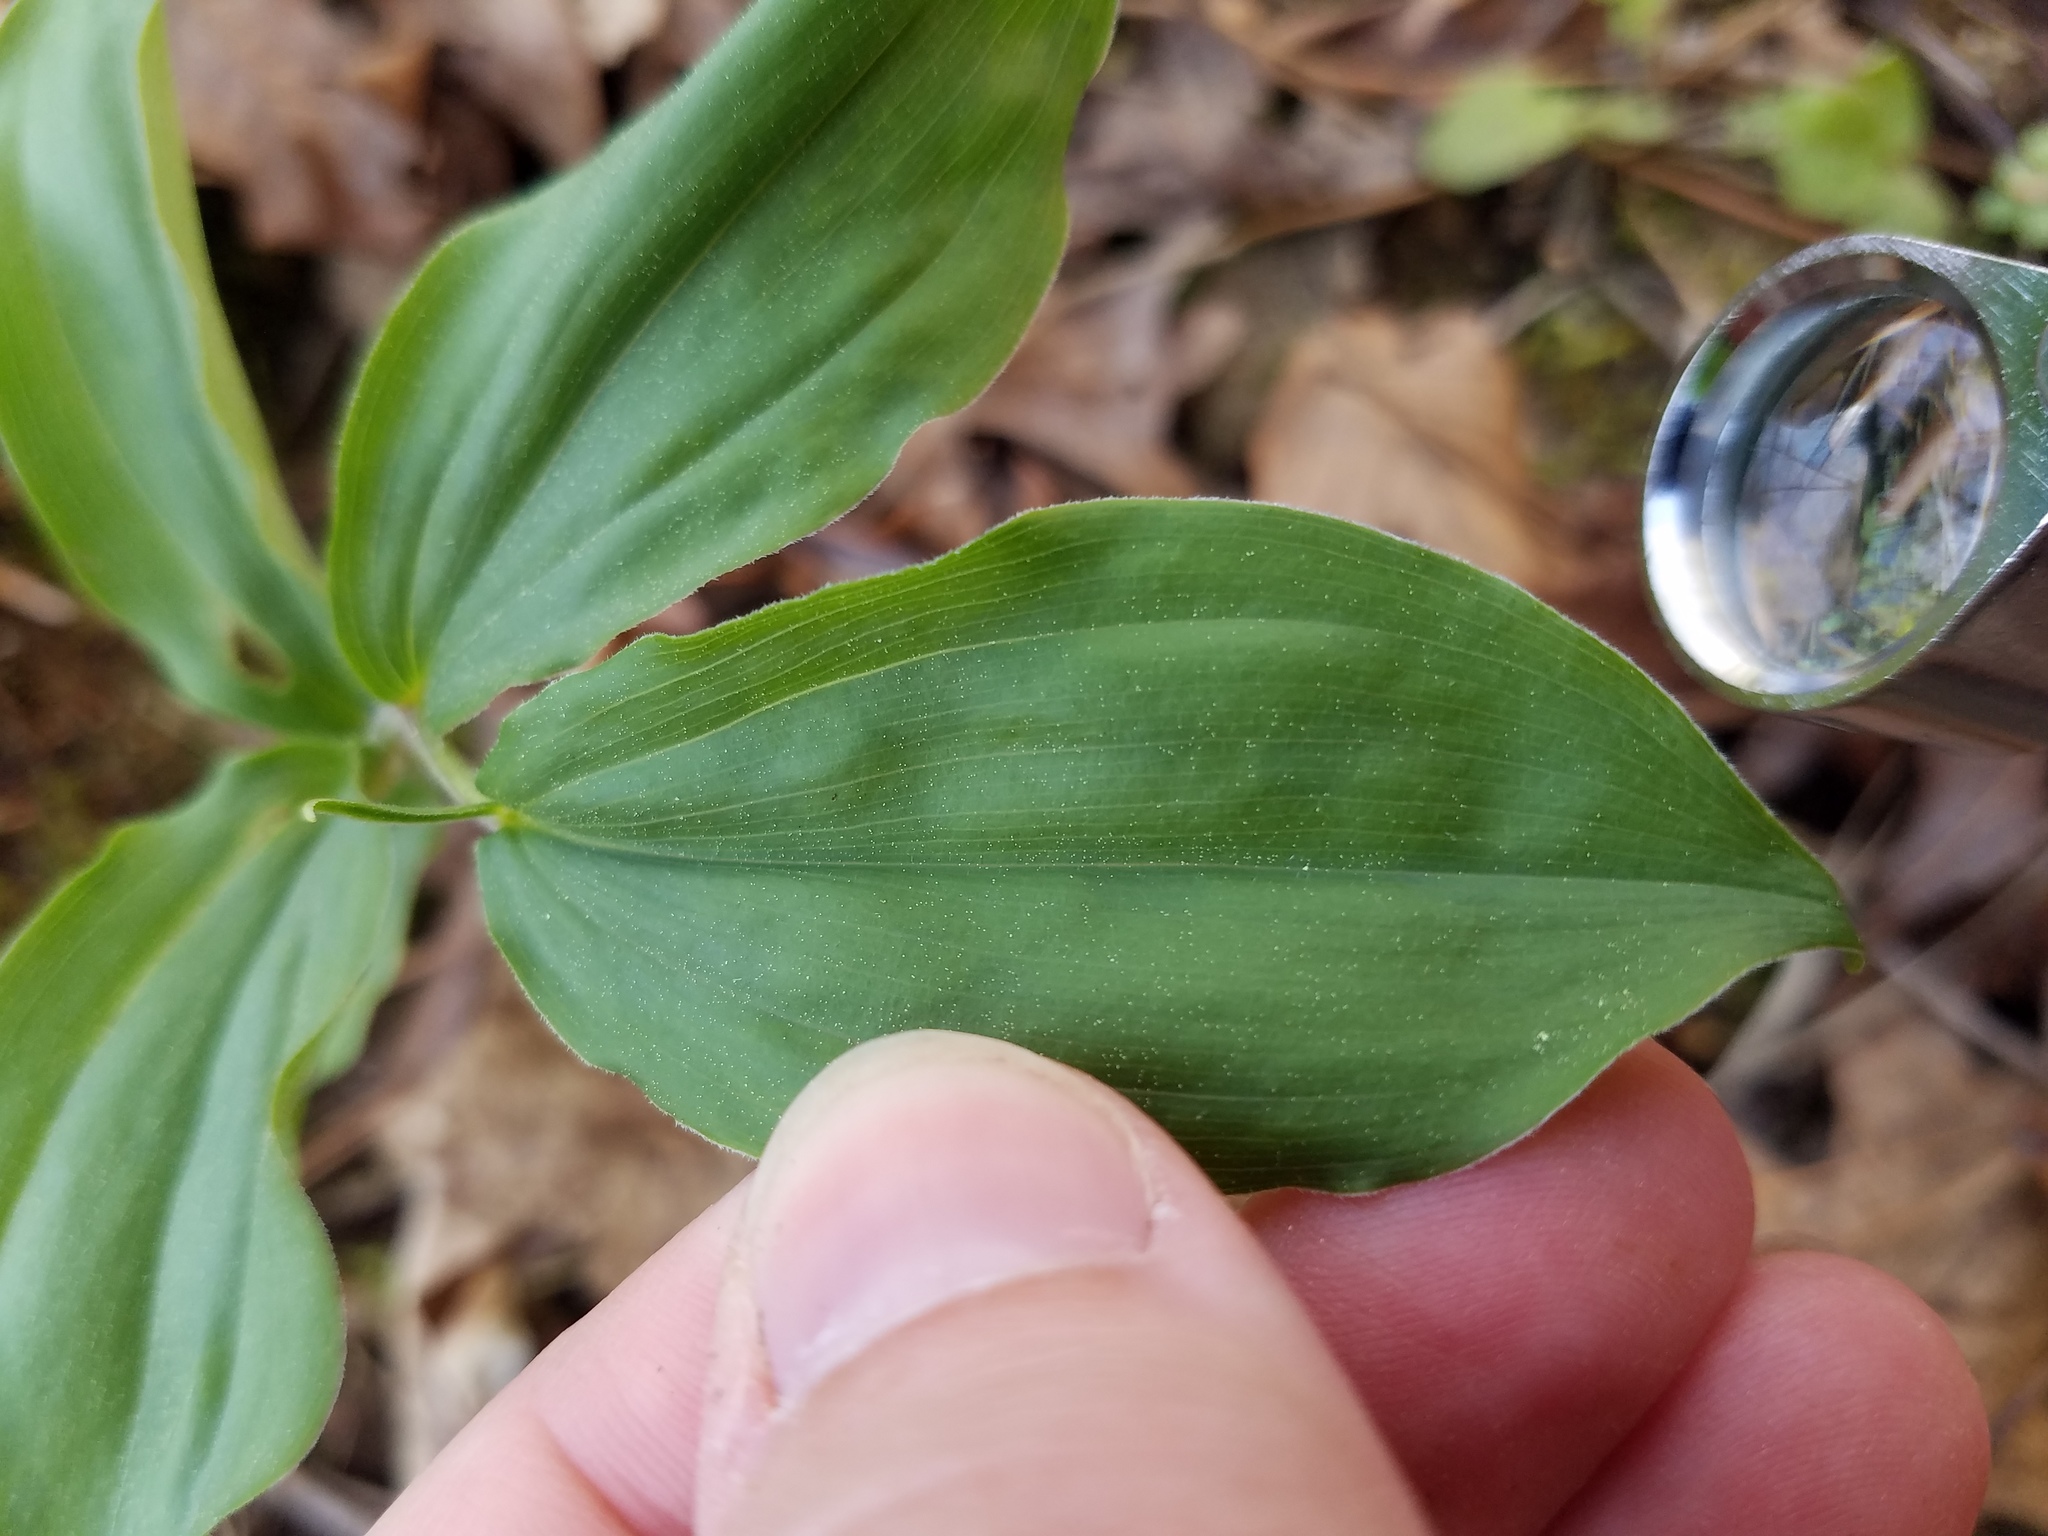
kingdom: Plantae
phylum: Tracheophyta
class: Liliopsida
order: Asparagales
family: Asparagaceae
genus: Maianthemum
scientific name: Maianthemum racemosum
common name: False spikenard
